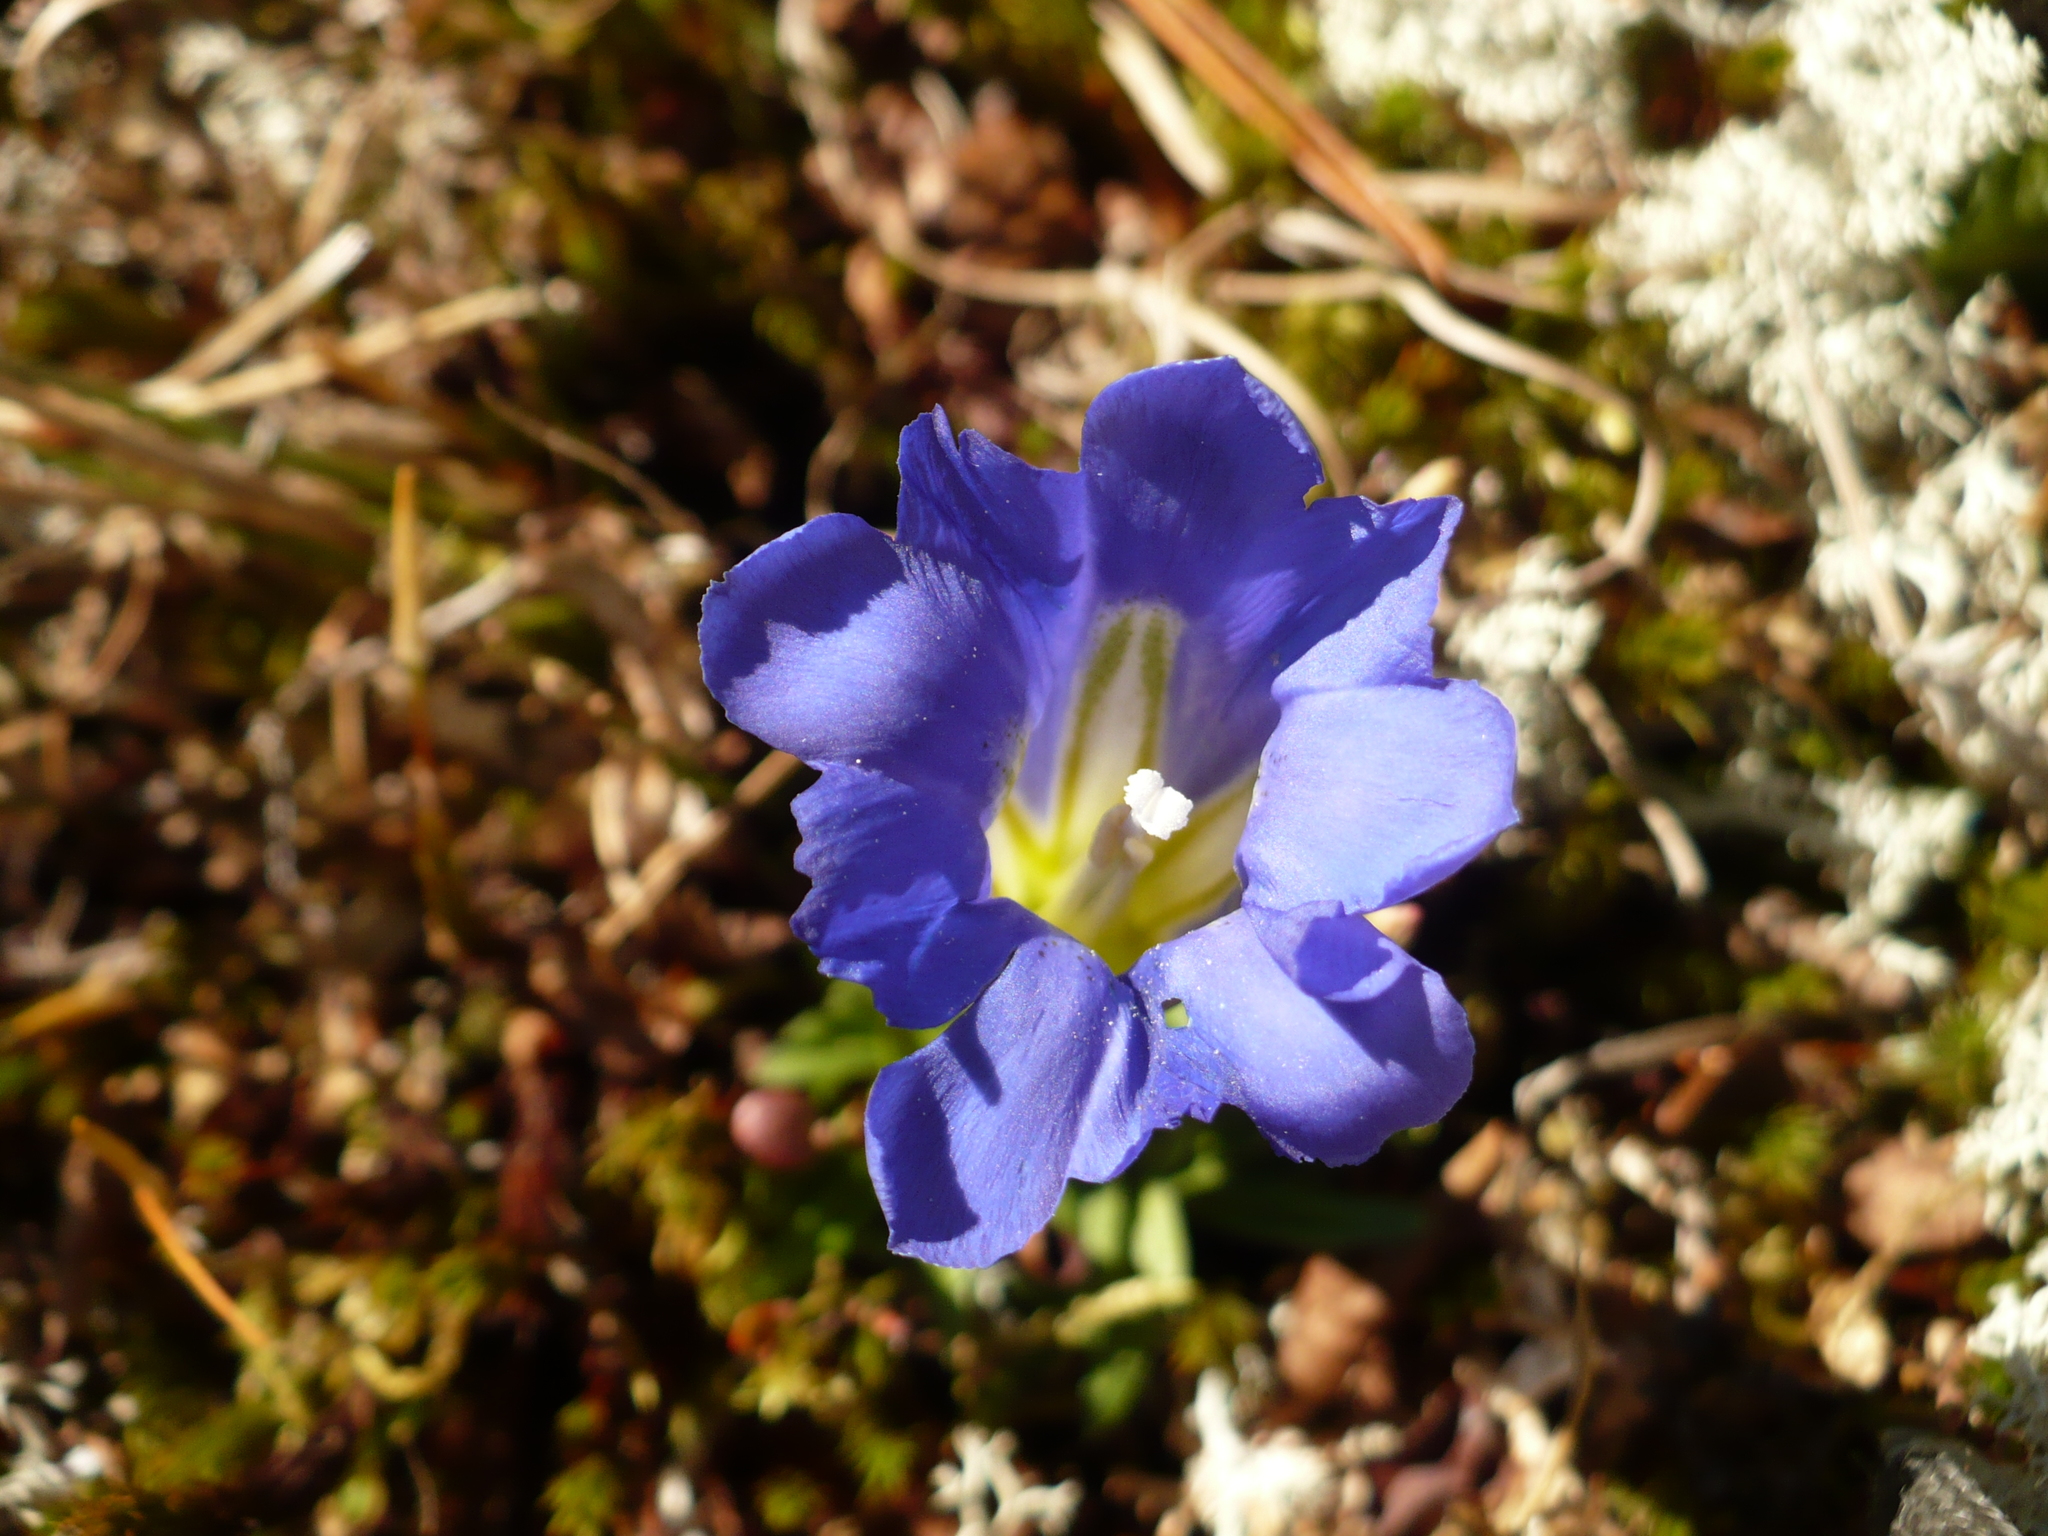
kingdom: Plantae
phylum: Tracheophyta
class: Magnoliopsida
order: Gentianales
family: Gentianaceae
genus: Gentiana
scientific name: Gentiana grandiflora
